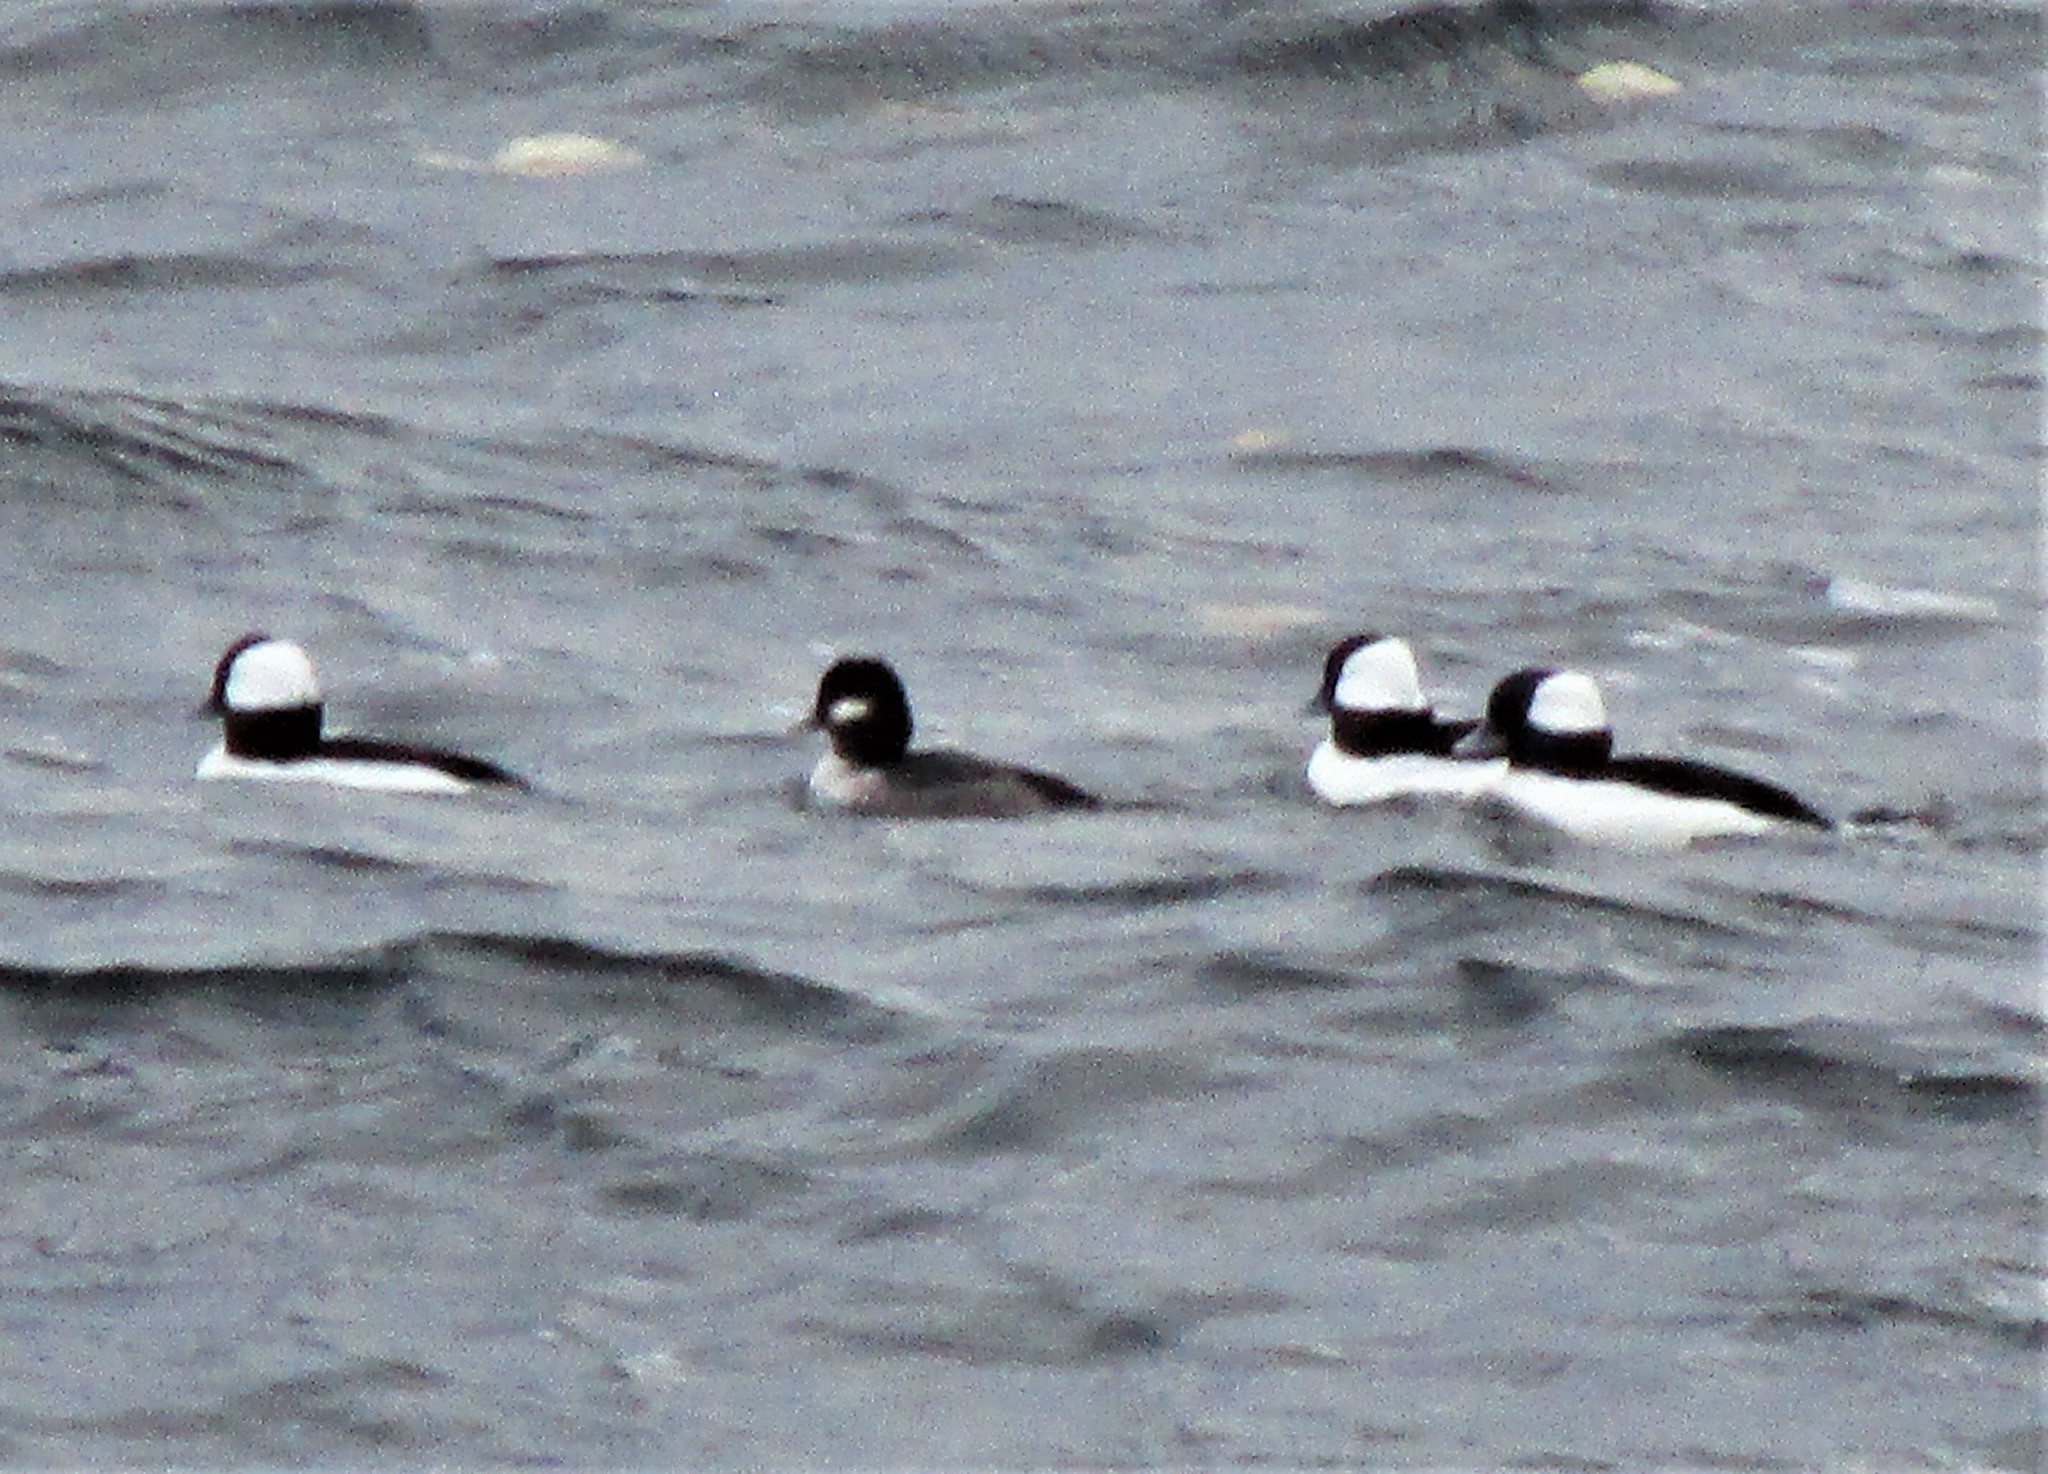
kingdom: Animalia
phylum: Chordata
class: Aves
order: Anseriformes
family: Anatidae
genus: Bucephala
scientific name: Bucephala albeola
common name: Bufflehead
